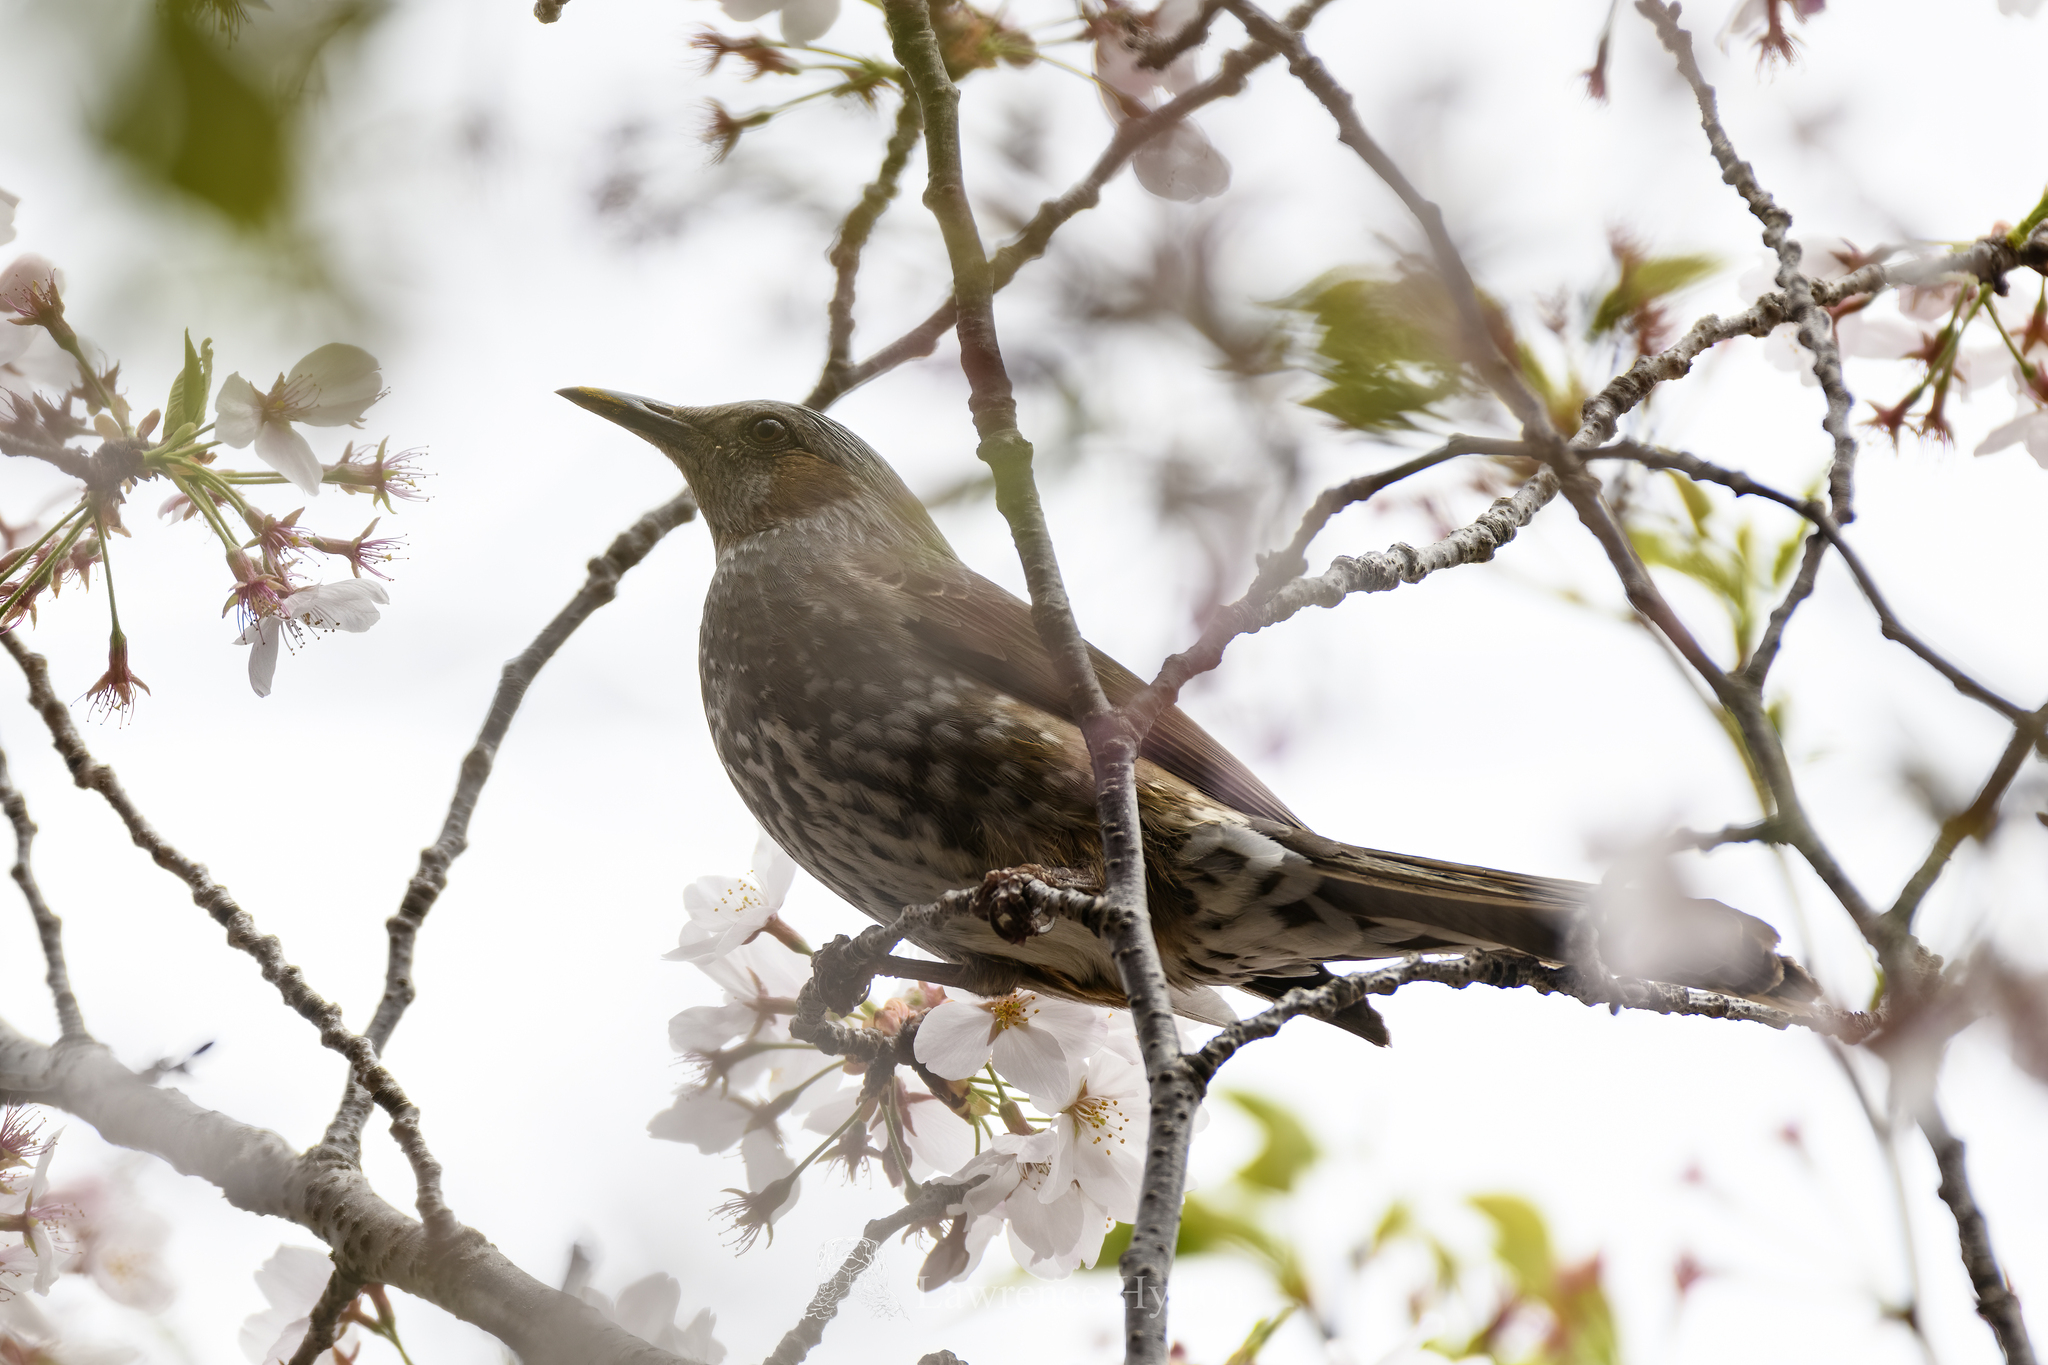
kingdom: Animalia
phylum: Chordata
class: Aves
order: Passeriformes
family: Pycnonotidae
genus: Hypsipetes
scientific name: Hypsipetes amaurotis
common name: Brown-eared bulbul
